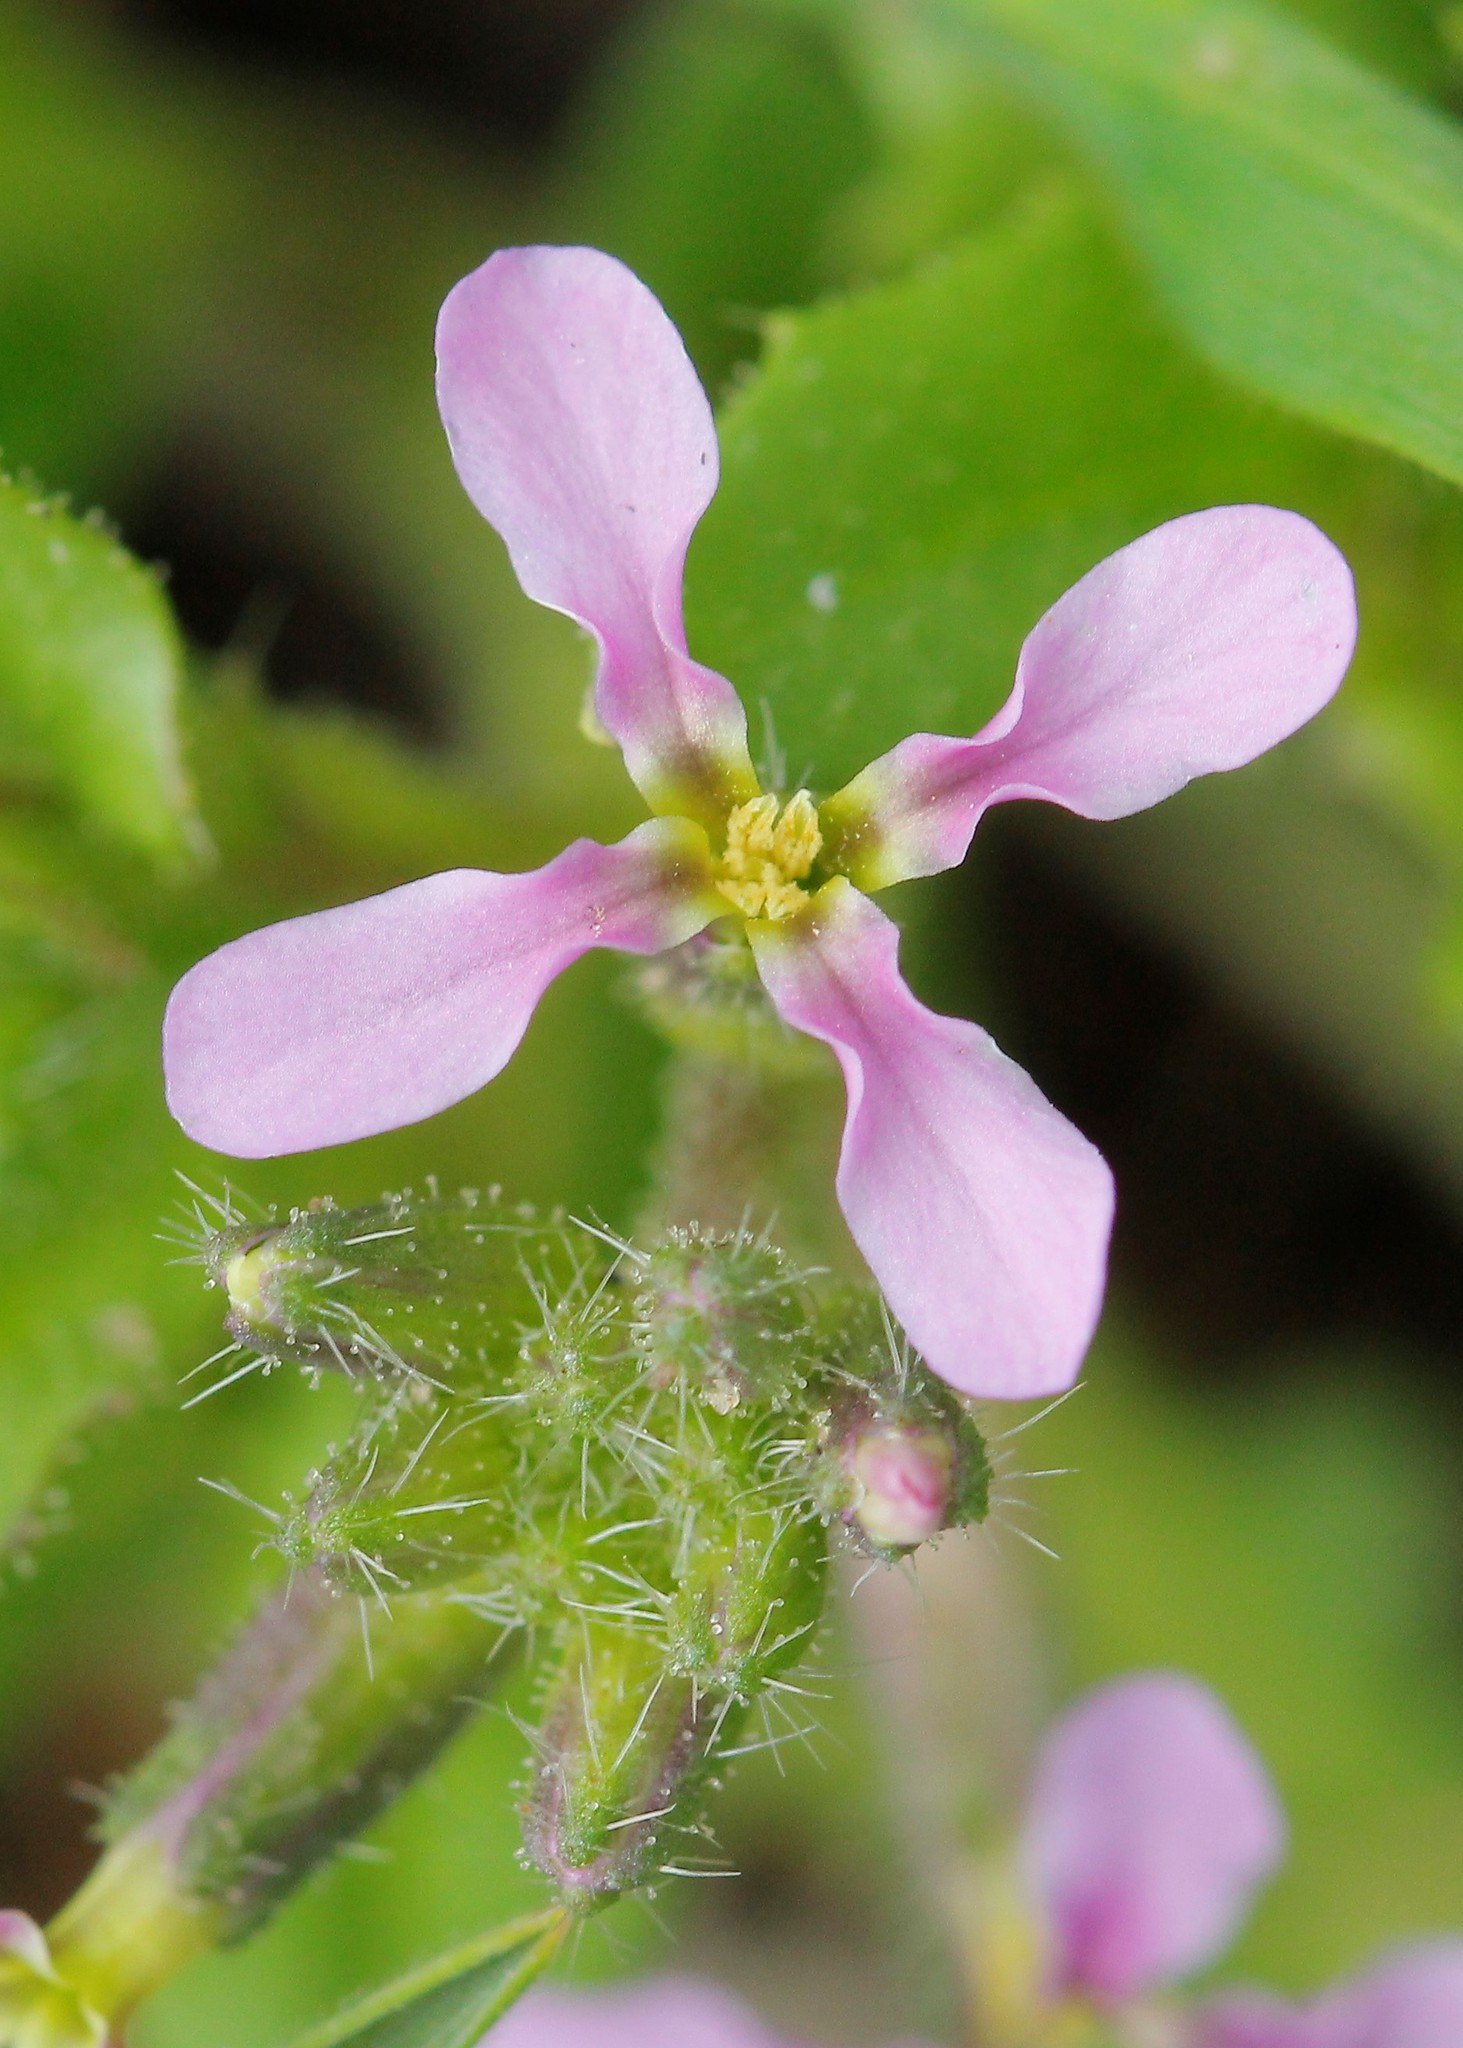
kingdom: Plantae
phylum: Tracheophyta
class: Magnoliopsida
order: Brassicales
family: Brassicaceae
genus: Chorispora
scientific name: Chorispora tenella
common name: Crossflower
